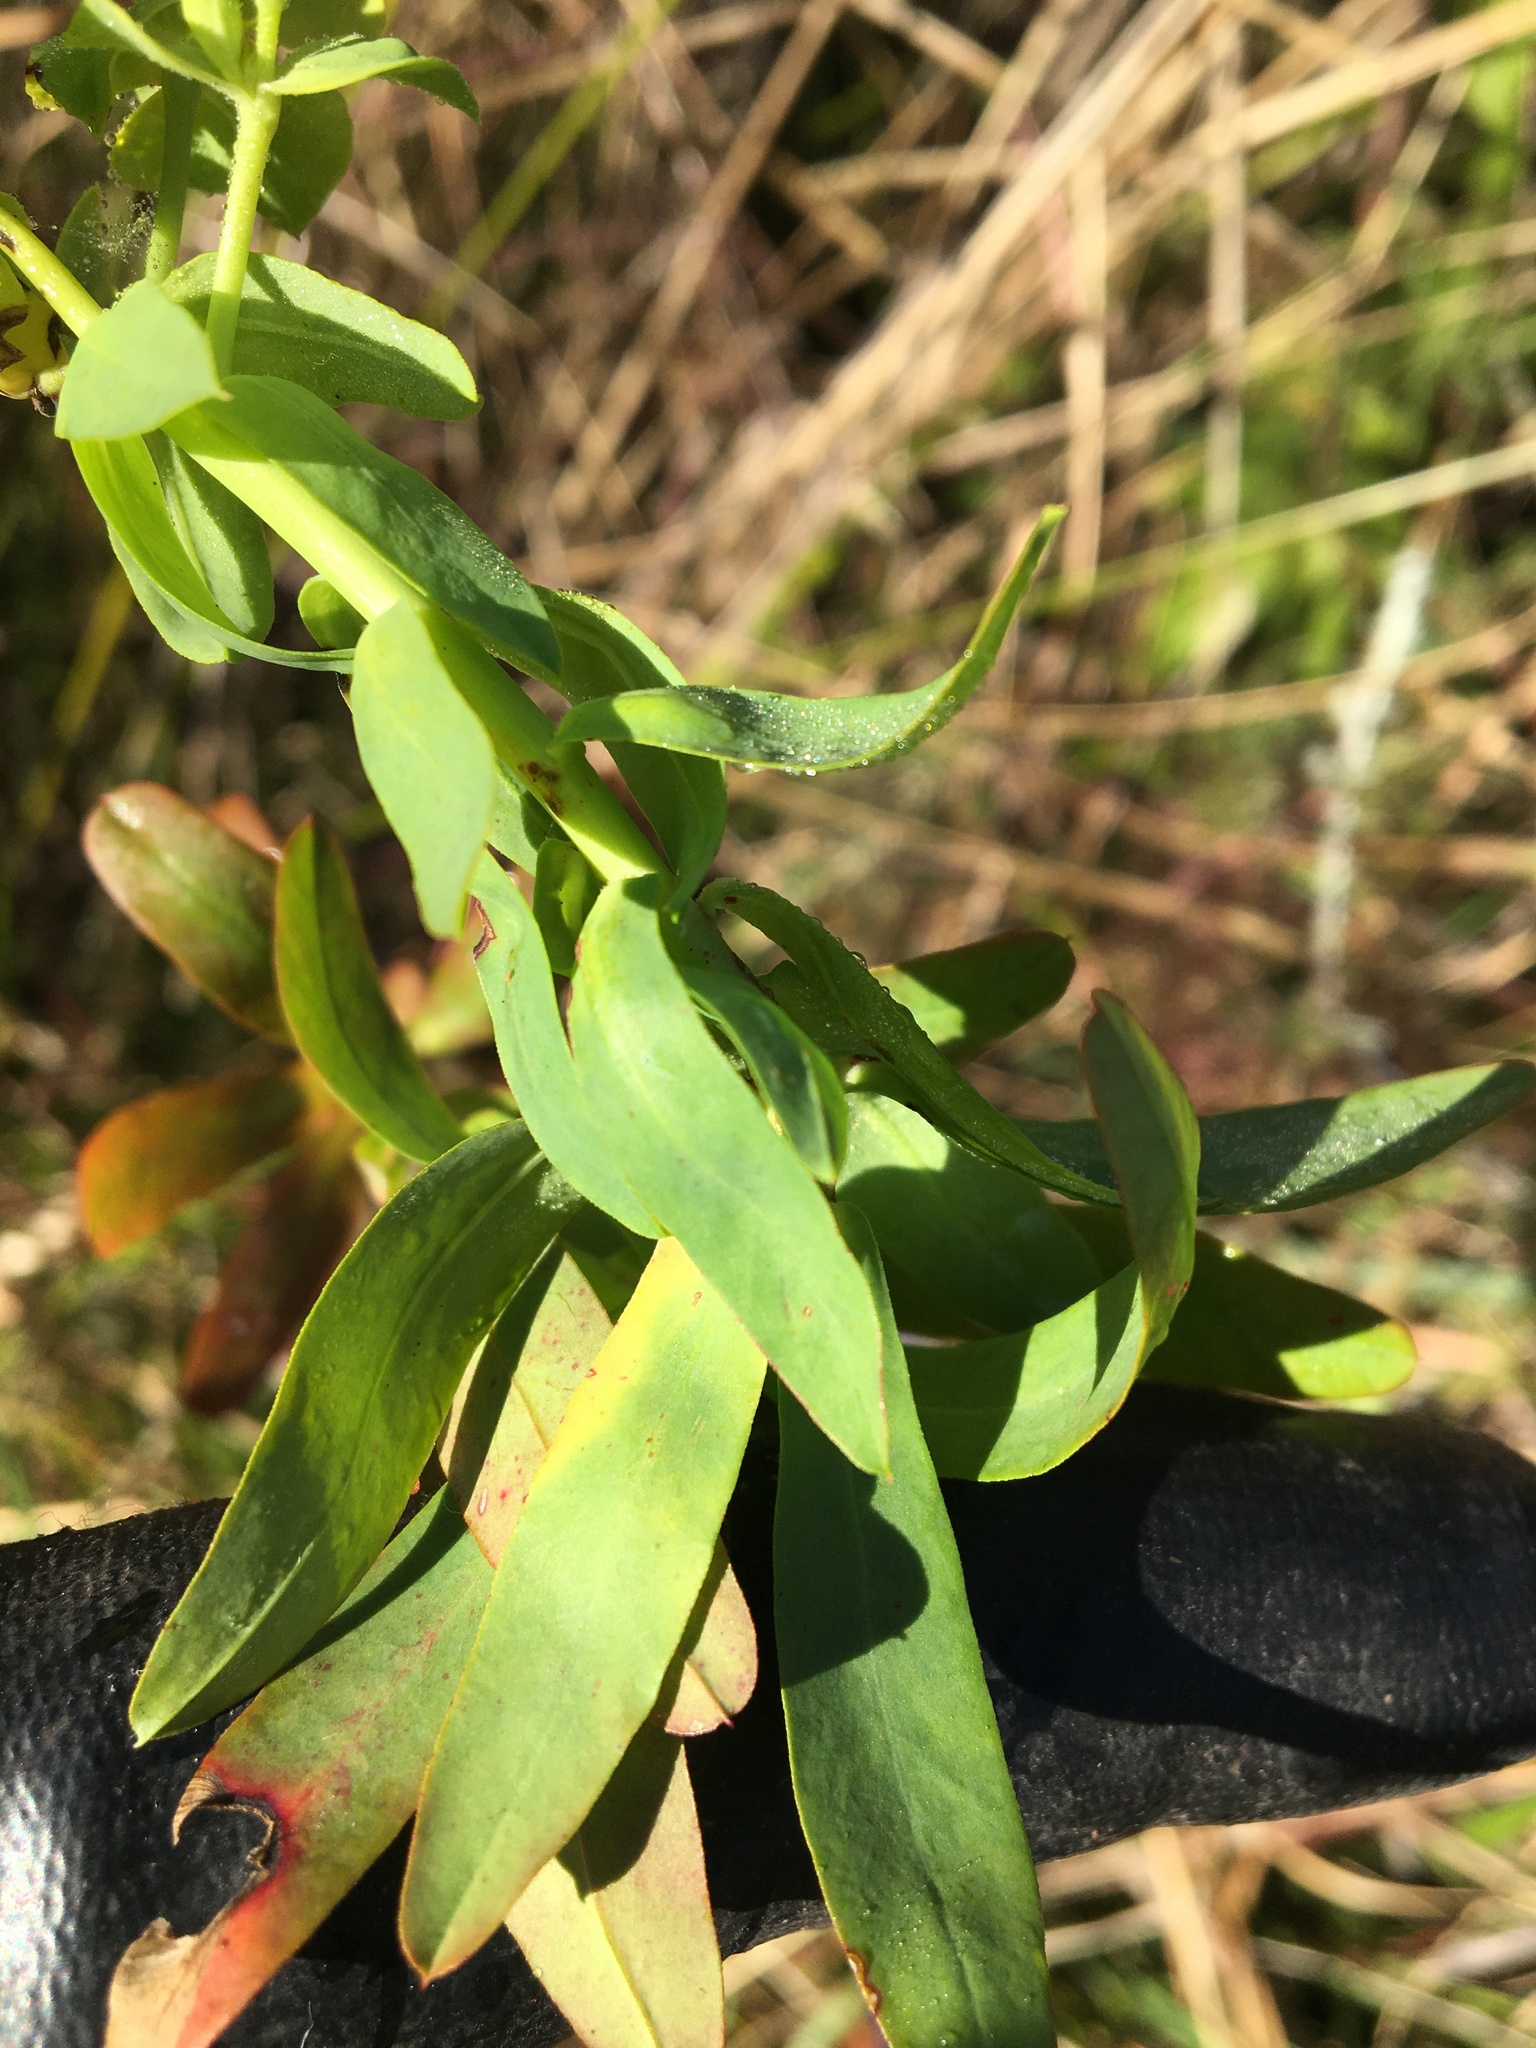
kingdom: Plantae
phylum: Tracheophyta
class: Magnoliopsida
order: Malpighiales
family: Euphorbiaceae
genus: Euphorbia
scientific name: Euphorbia terracina
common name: Geraldton carnation weed
